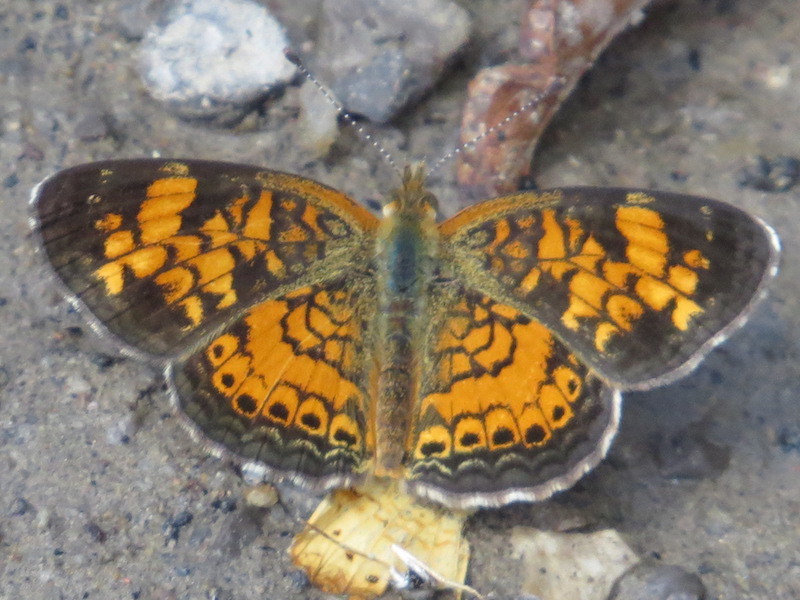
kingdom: Animalia
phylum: Arthropoda
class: Insecta
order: Lepidoptera
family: Nymphalidae
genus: Phyciodes
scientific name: Phyciodes tharos
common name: Pearl crescent
